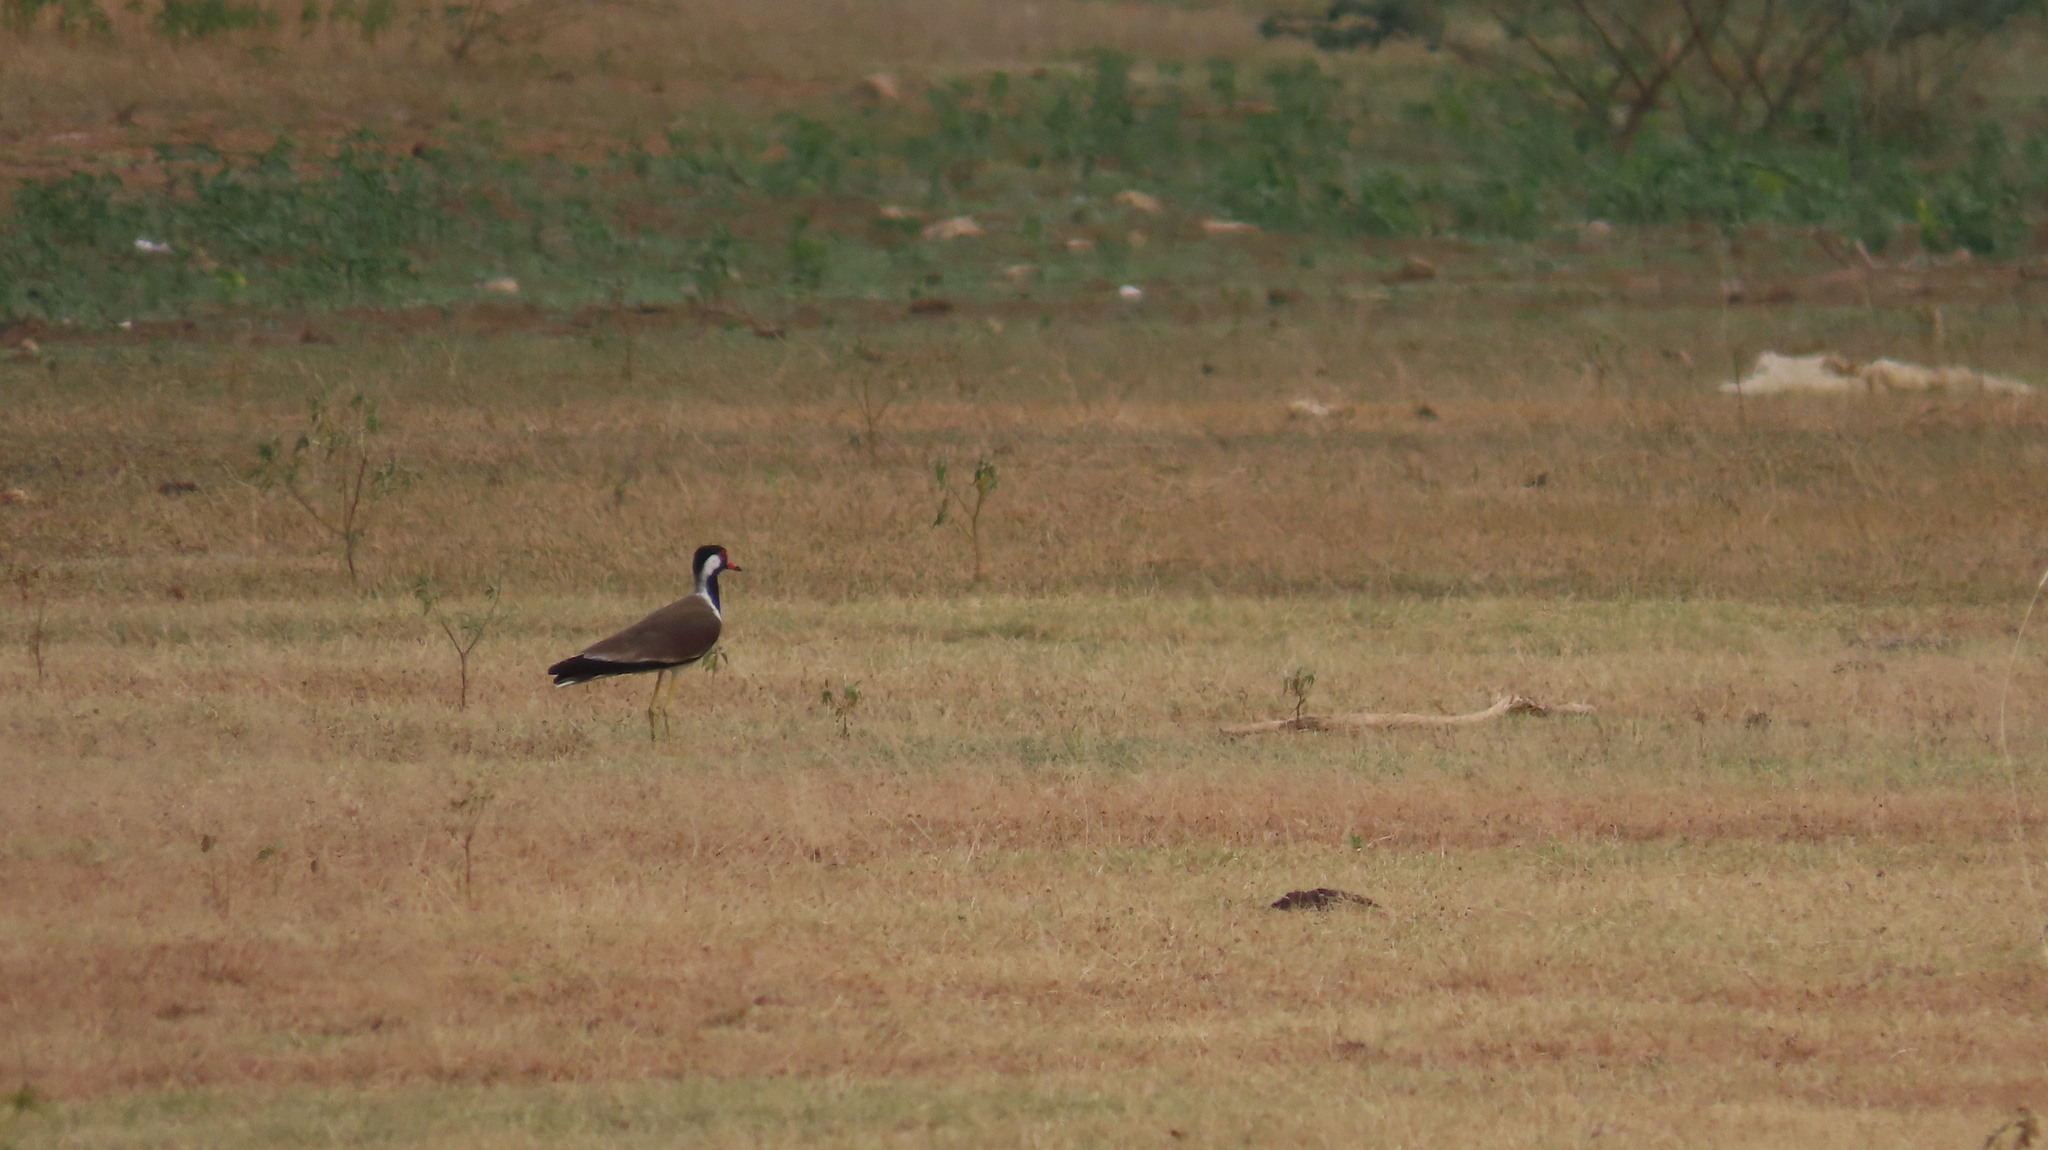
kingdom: Animalia
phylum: Chordata
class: Aves
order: Charadriiformes
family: Charadriidae
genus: Vanellus
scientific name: Vanellus indicus
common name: Red-wattled lapwing
